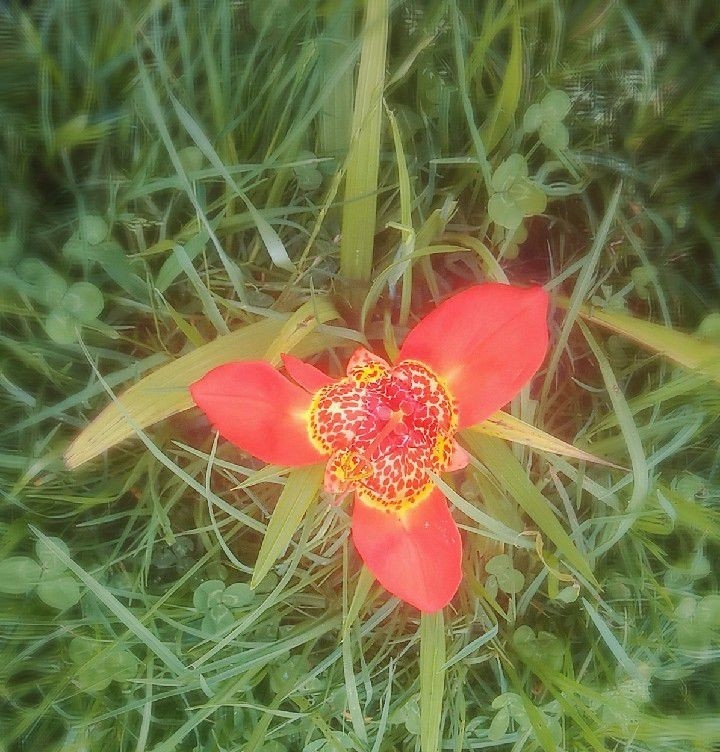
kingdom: Plantae
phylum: Tracheophyta
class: Liliopsida
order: Asparagales
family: Iridaceae
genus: Tigridia
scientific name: Tigridia pavonia
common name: Peacock-flower
